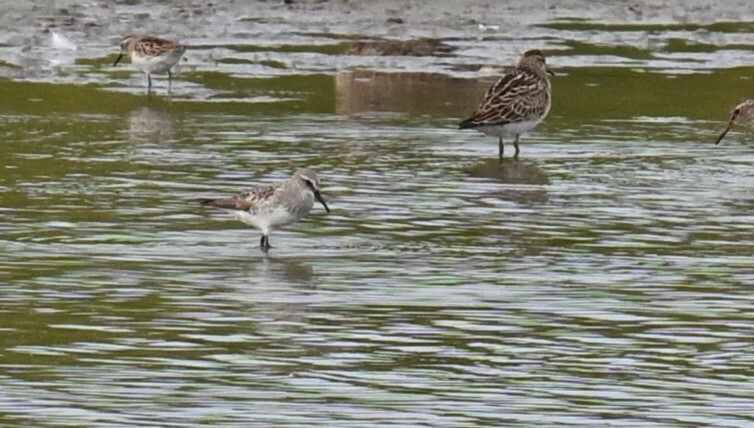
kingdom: Animalia
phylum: Chordata
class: Aves
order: Charadriiformes
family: Scolopacidae
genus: Calidris
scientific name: Calidris fuscicollis
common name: White-rumped sandpiper
